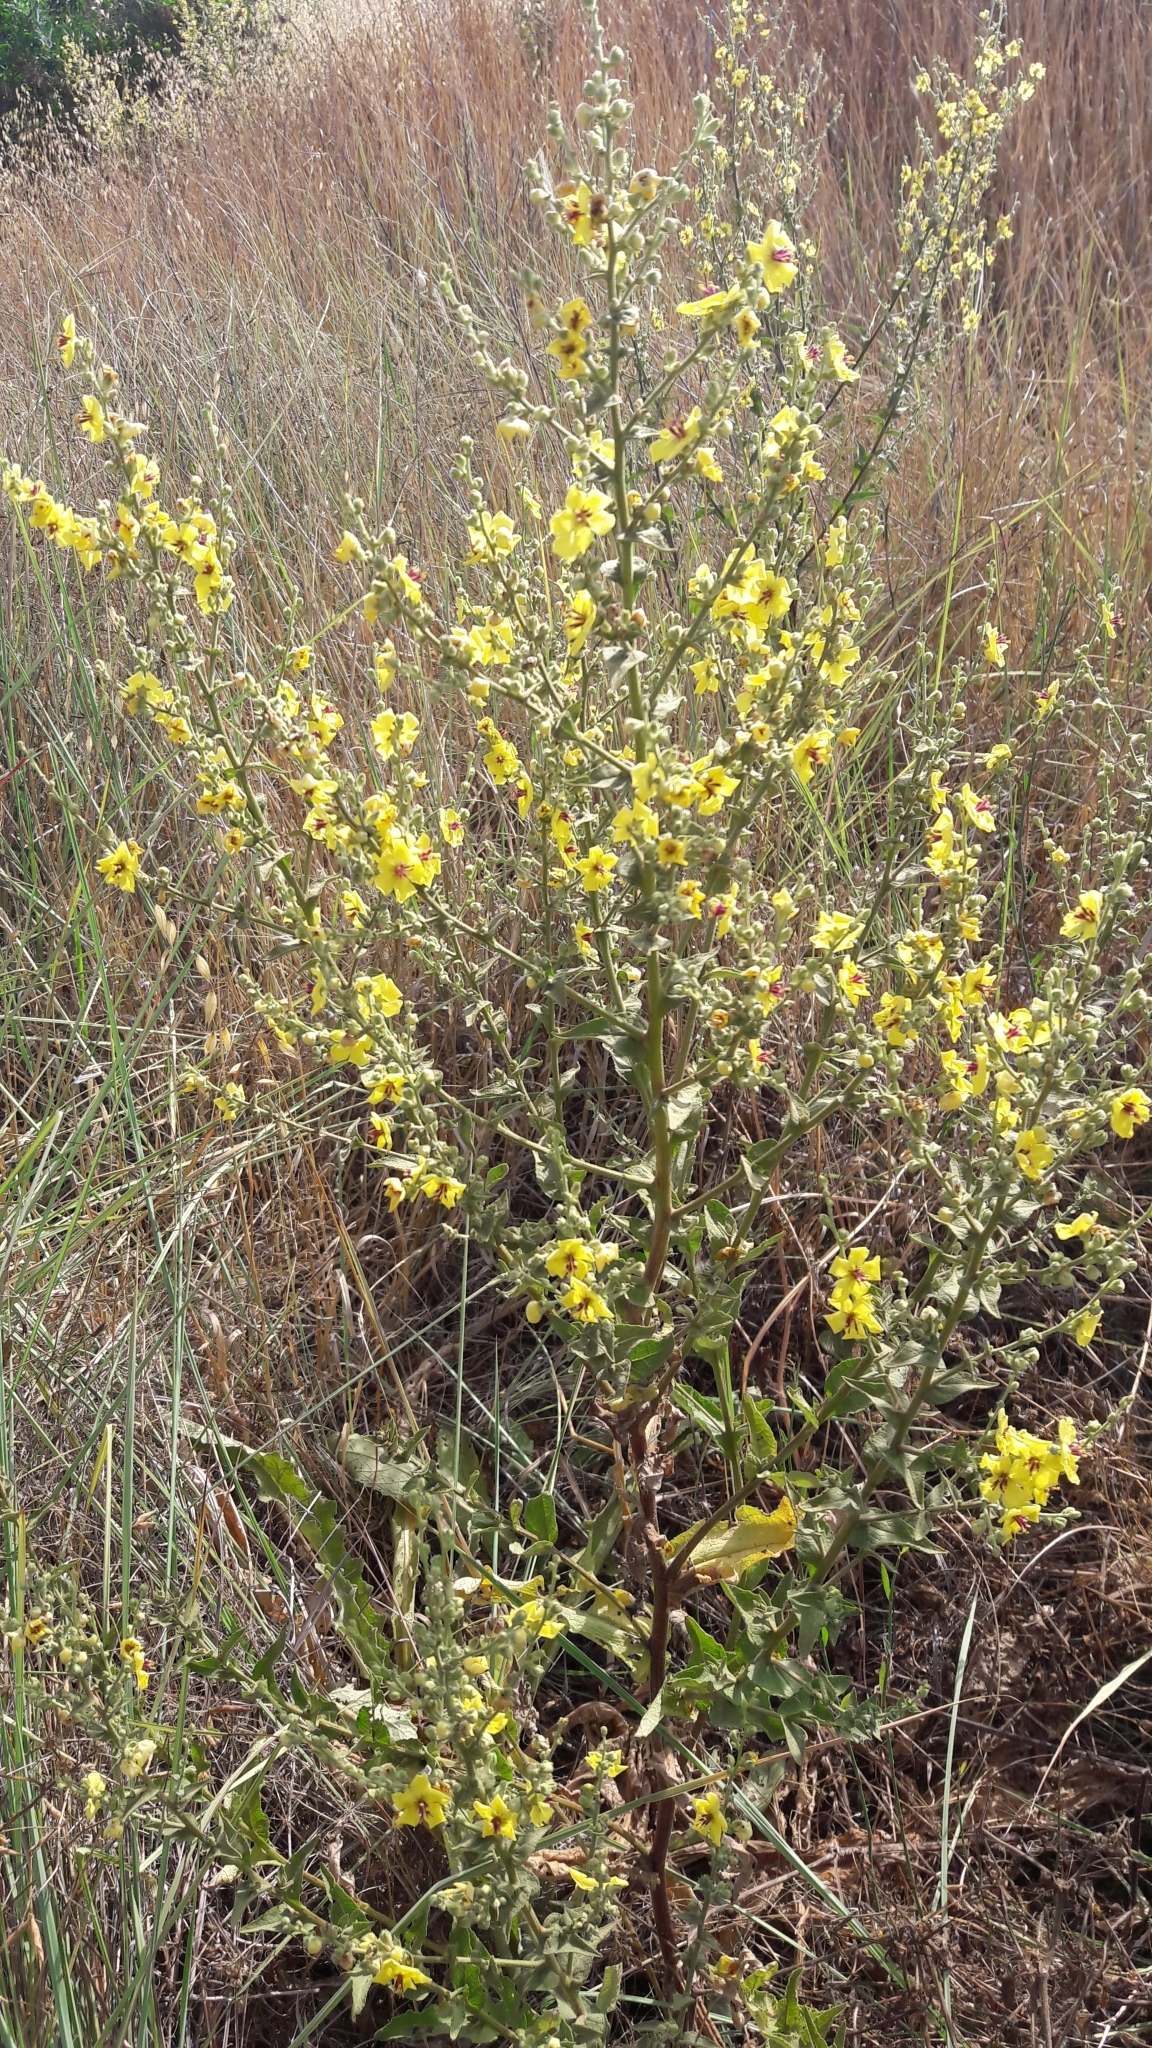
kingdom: Plantae
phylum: Tracheophyta
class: Magnoliopsida
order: Lamiales
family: Scrophulariaceae
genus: Verbascum
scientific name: Verbascum sinuatum
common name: Wavyleaf mullein
